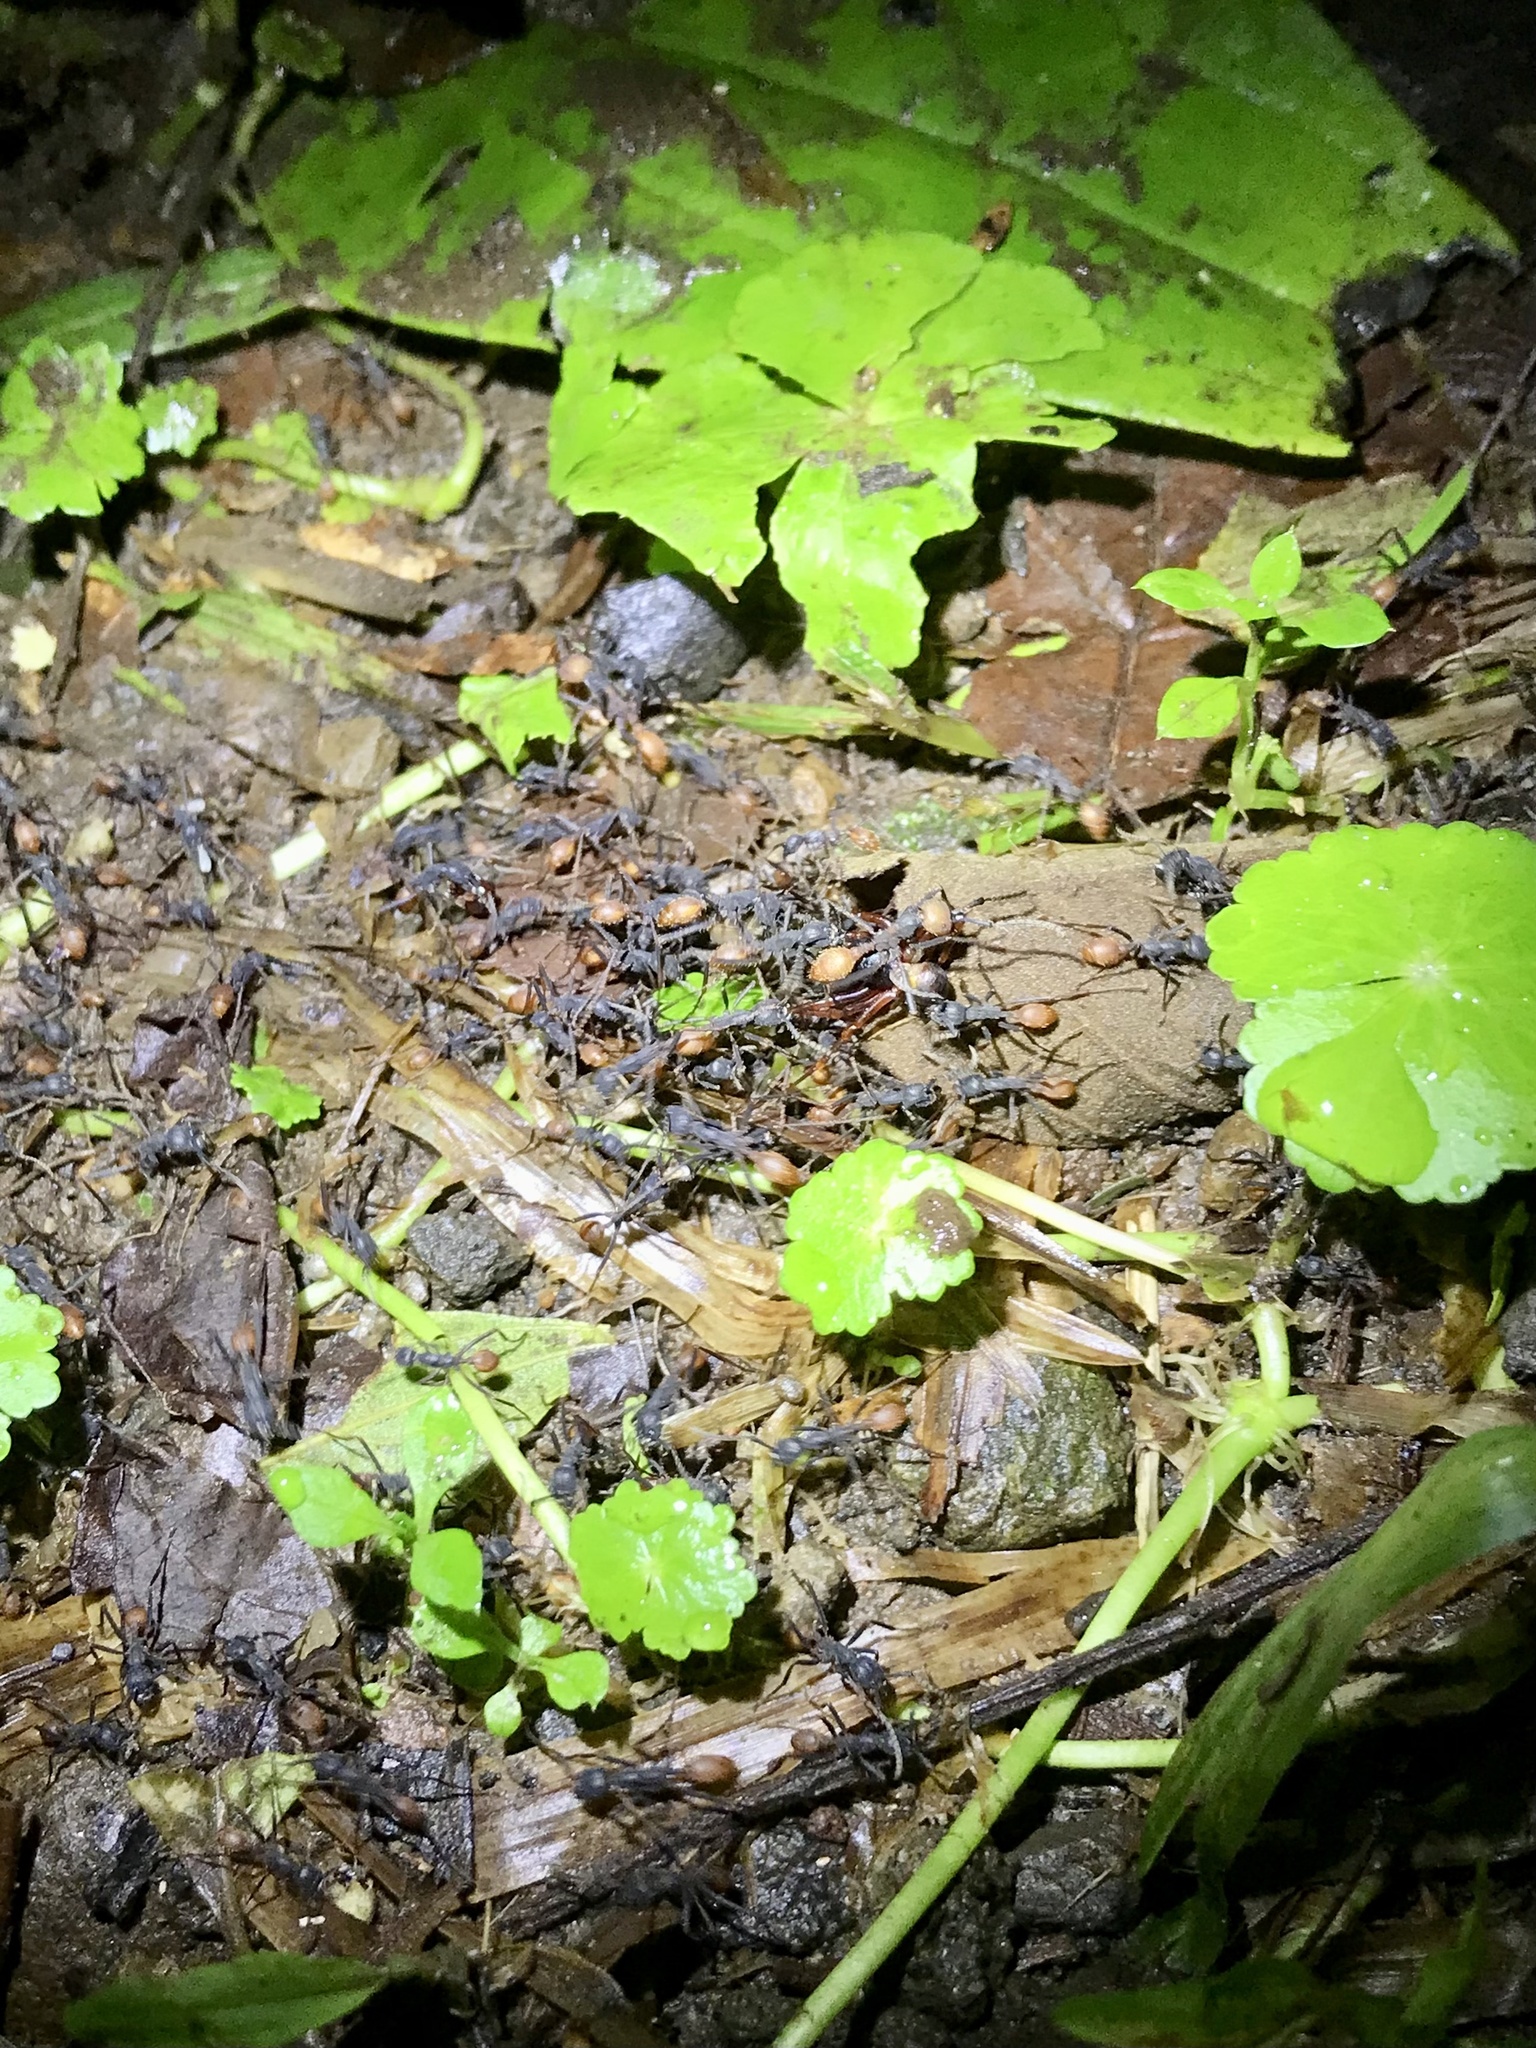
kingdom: Animalia
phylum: Arthropoda
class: Insecta
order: Hymenoptera
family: Formicidae
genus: Eciton
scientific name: Eciton burchellii
